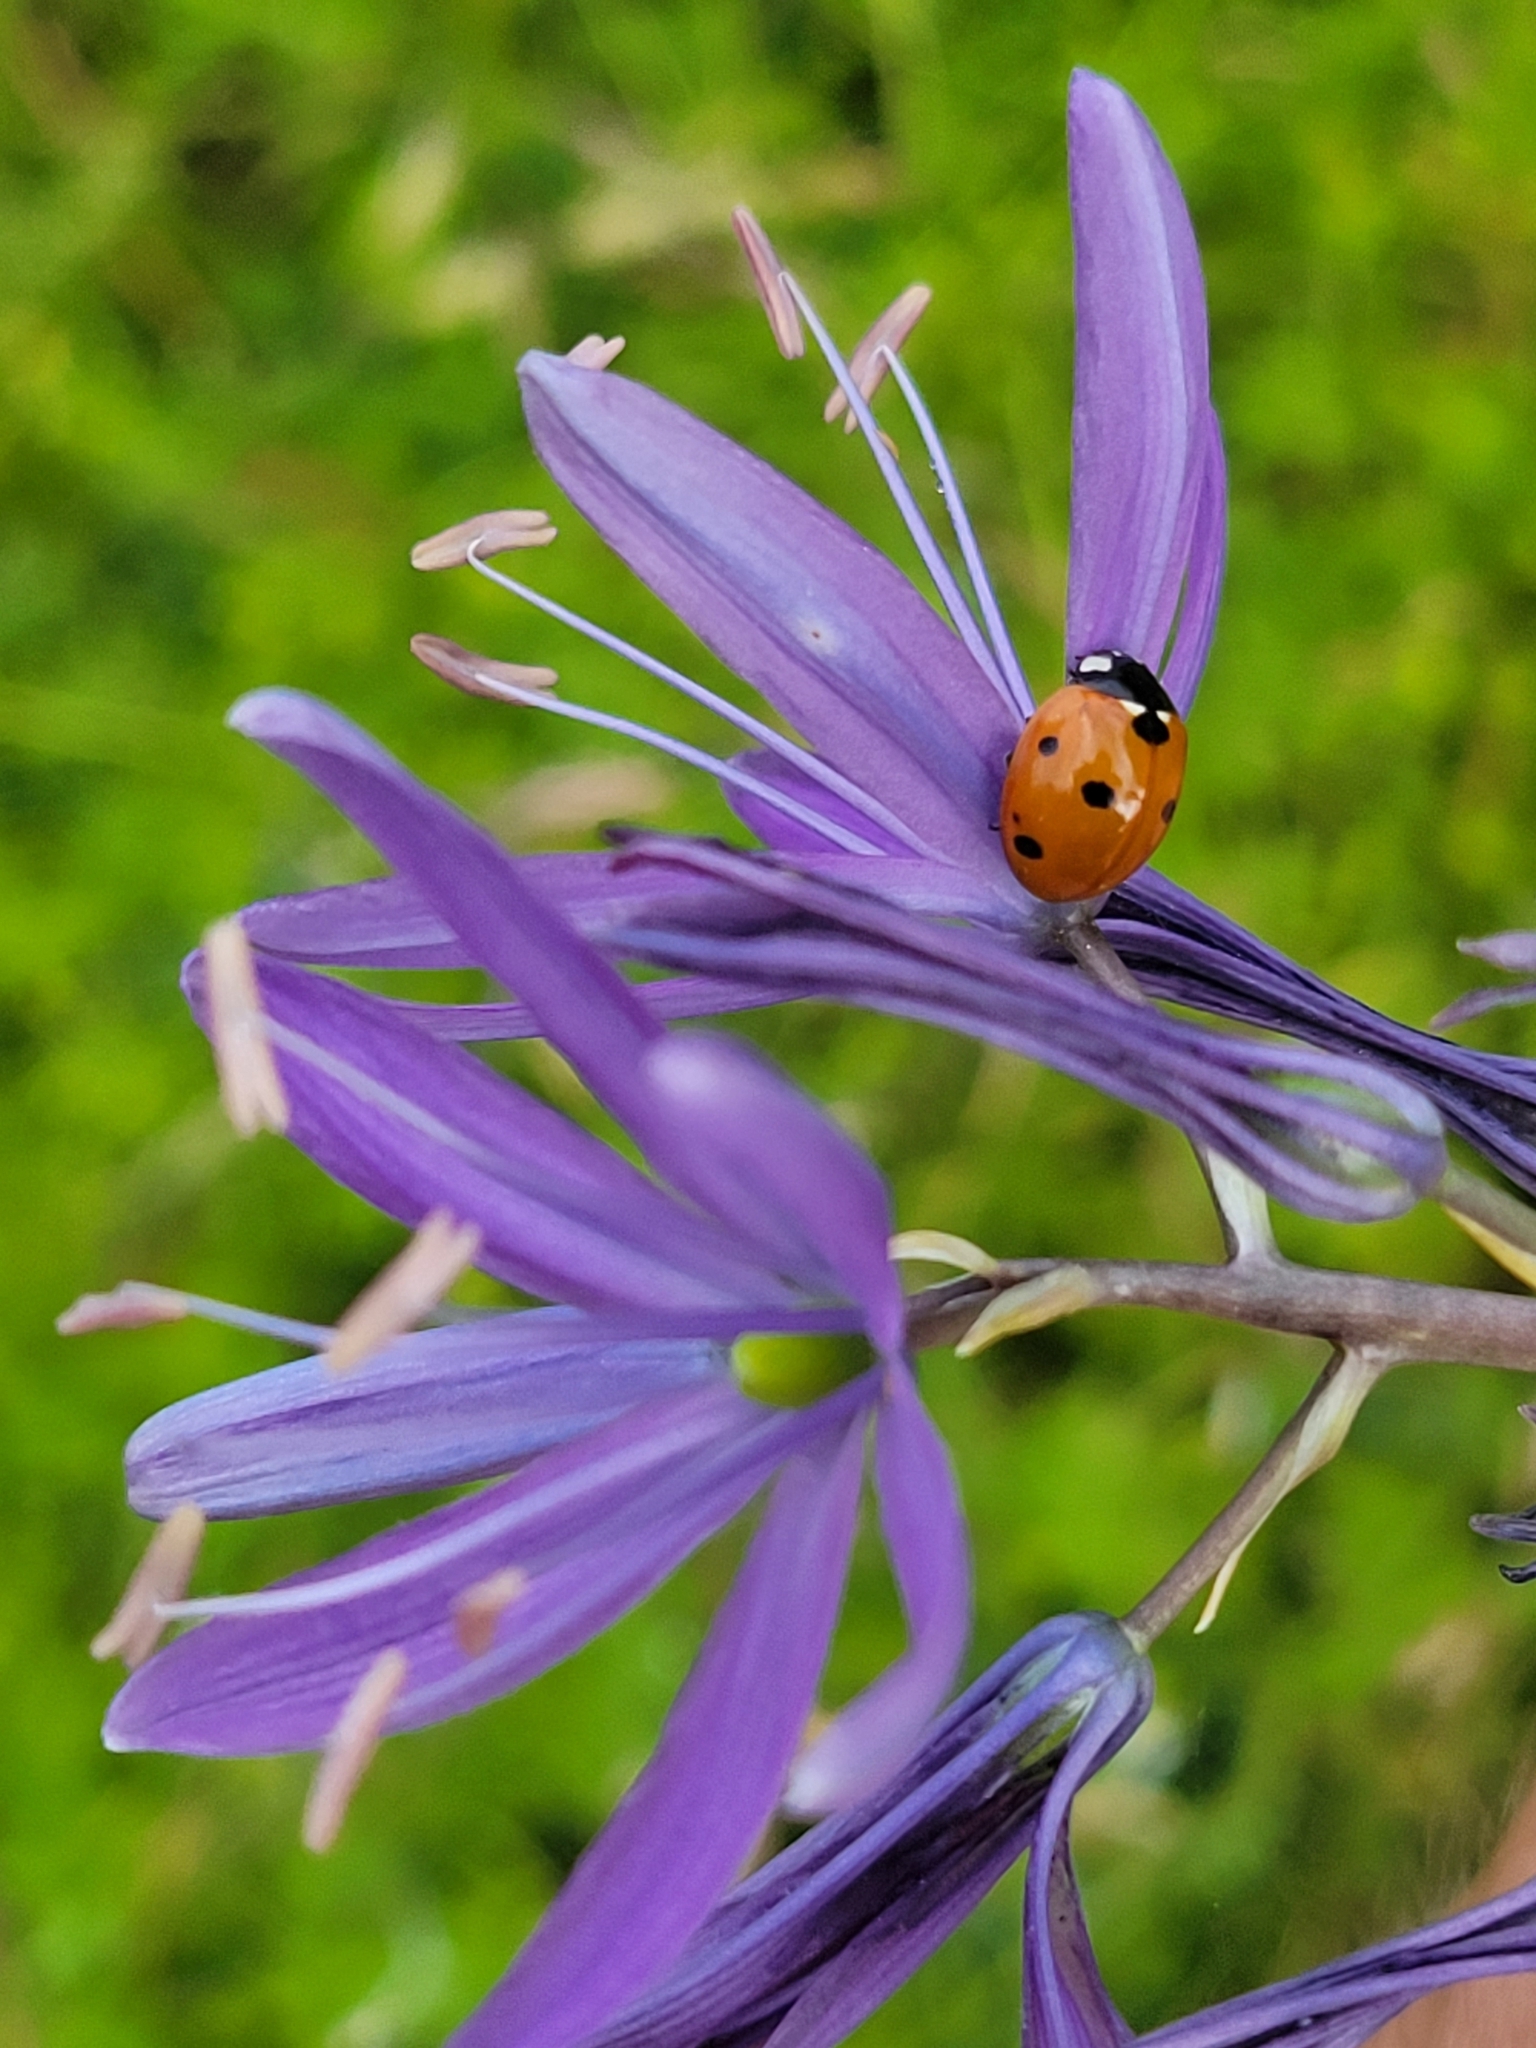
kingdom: Animalia
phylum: Arthropoda
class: Insecta
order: Coleoptera
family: Coccinellidae
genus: Coccinella
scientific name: Coccinella septempunctata
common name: Sevenspotted lady beetle
